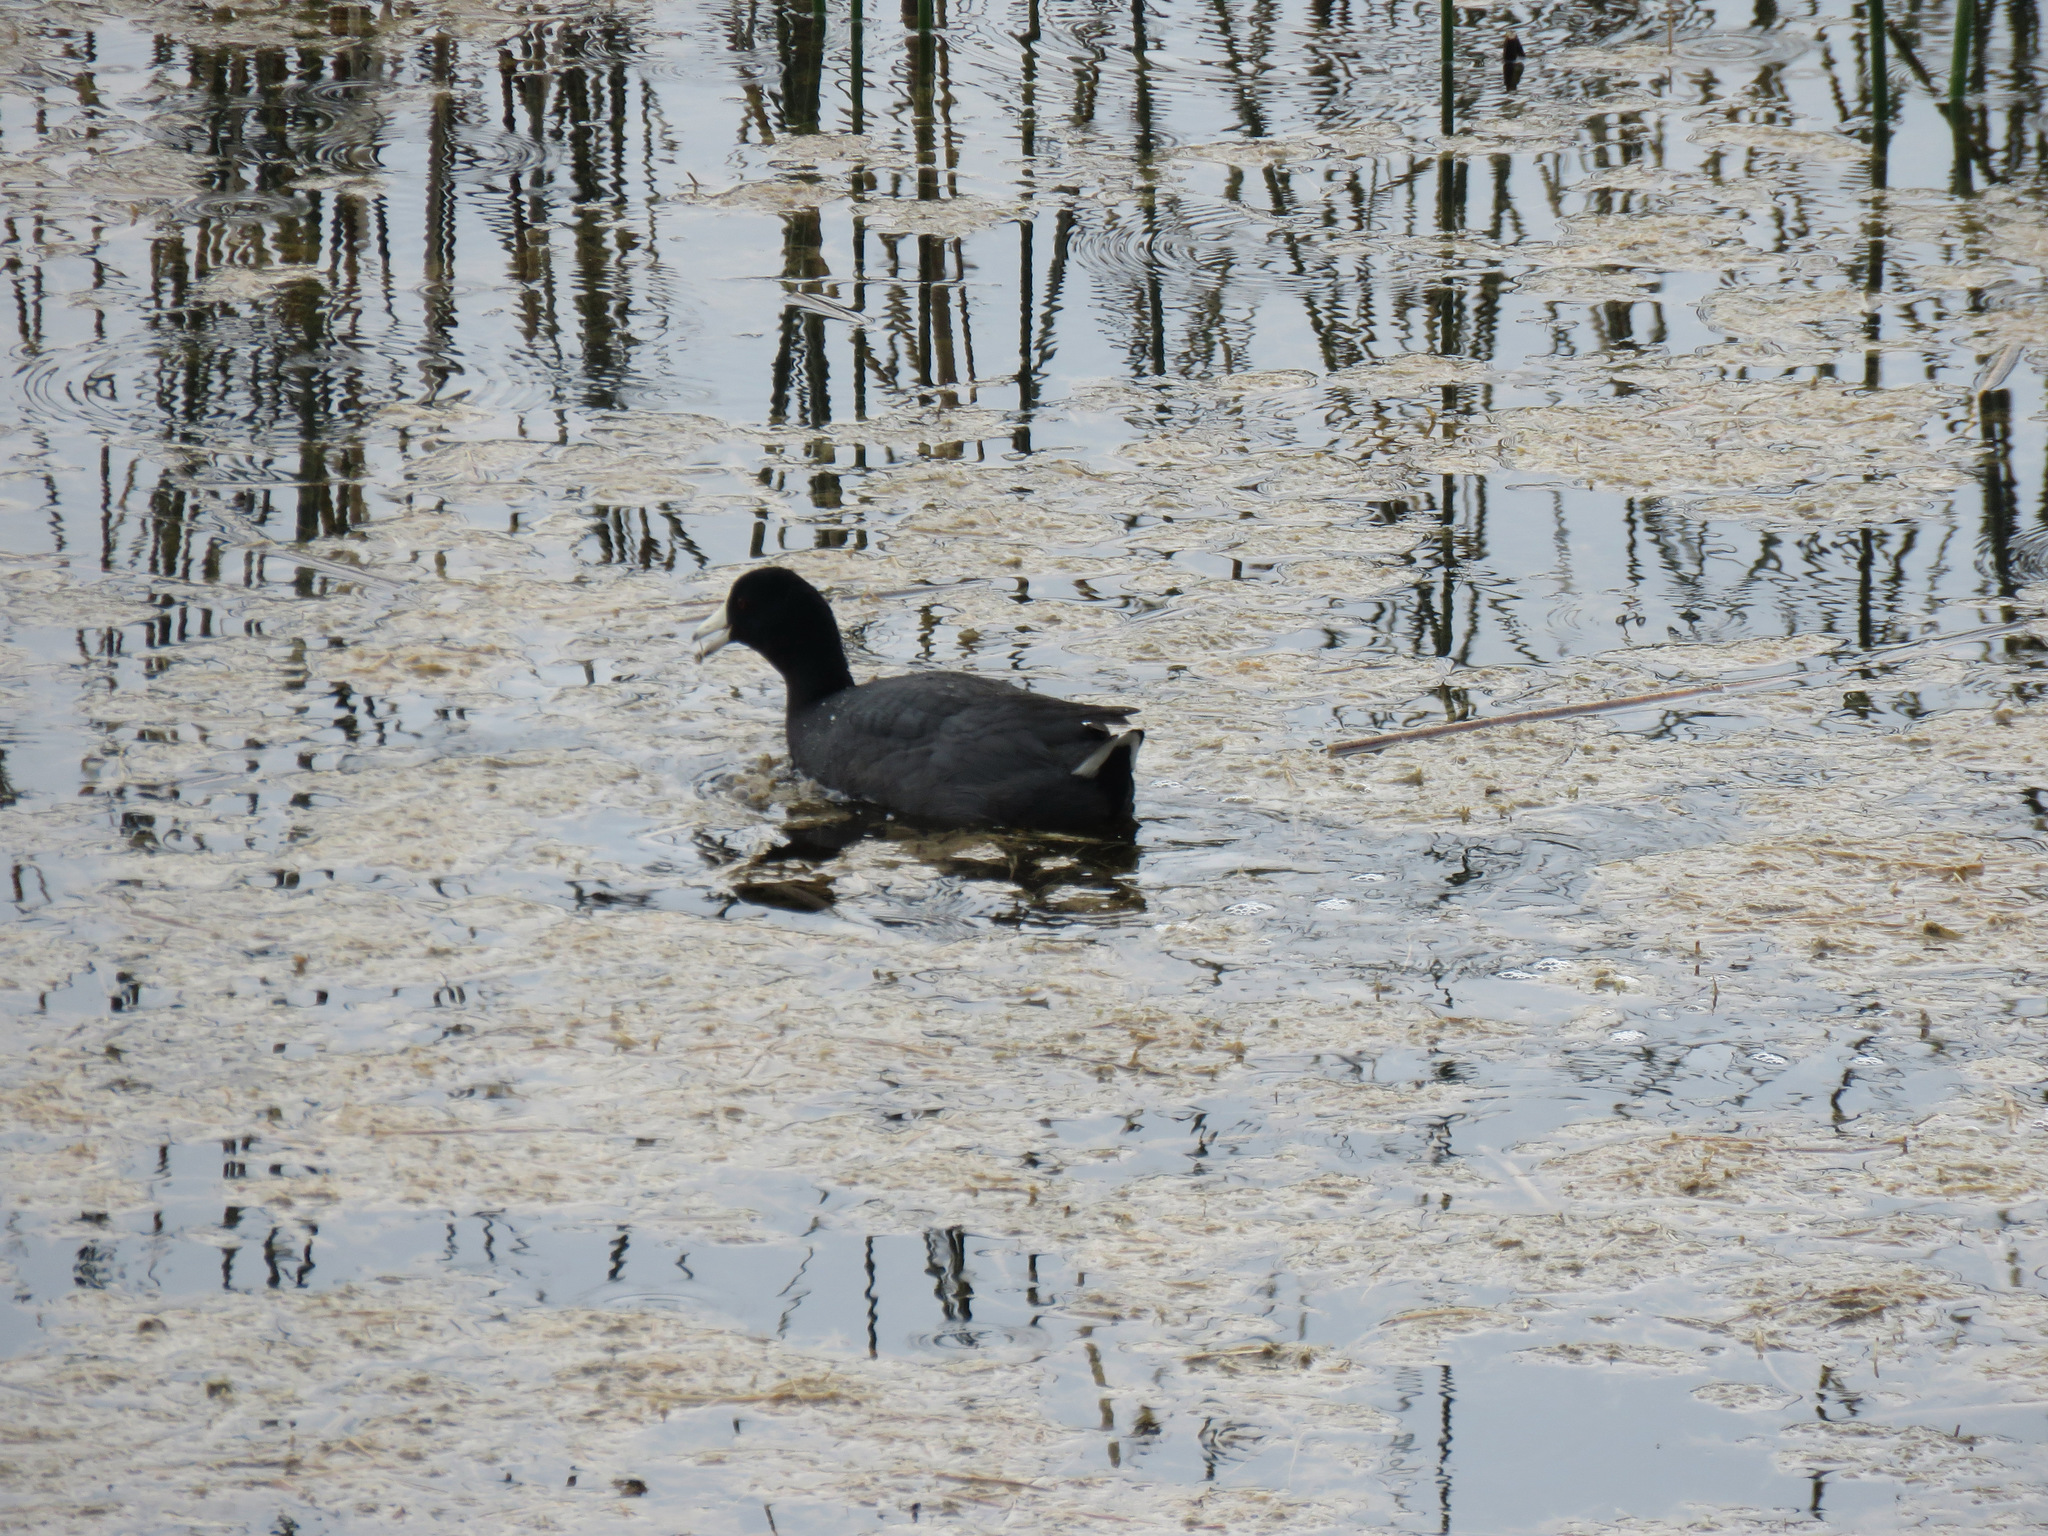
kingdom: Animalia
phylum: Chordata
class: Aves
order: Gruiformes
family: Rallidae
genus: Fulica
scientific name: Fulica americana
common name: American coot
